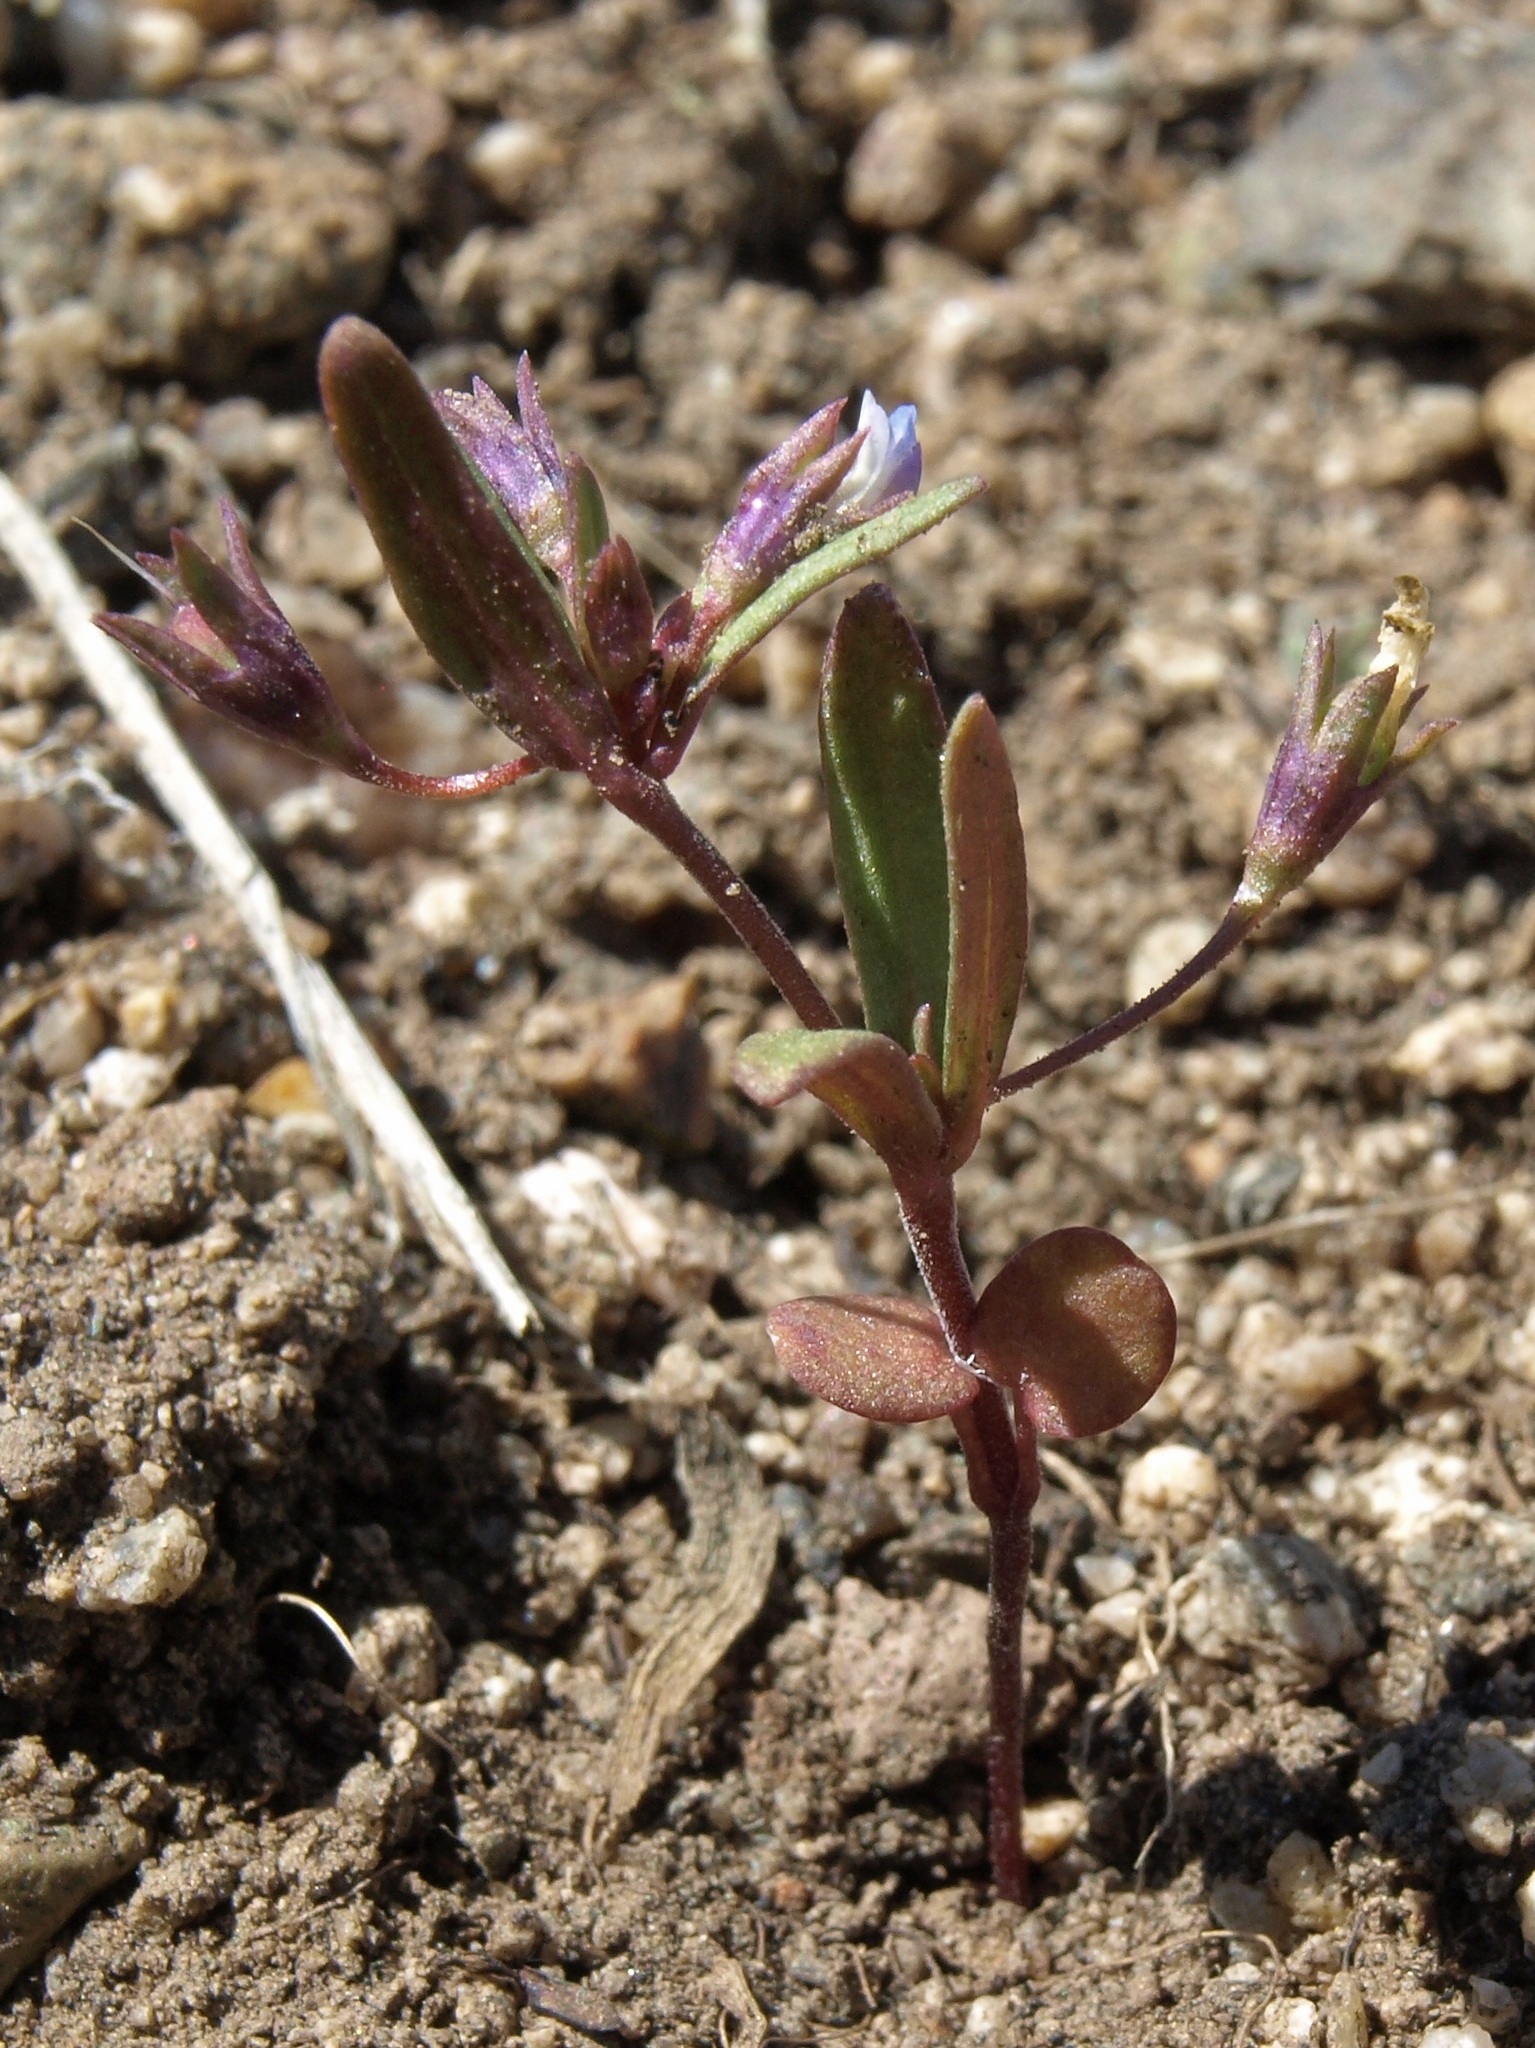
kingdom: Plantae
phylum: Tracheophyta
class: Magnoliopsida
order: Lamiales
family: Plantaginaceae
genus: Collinsia
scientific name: Collinsia parviflora
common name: Blue-lips
